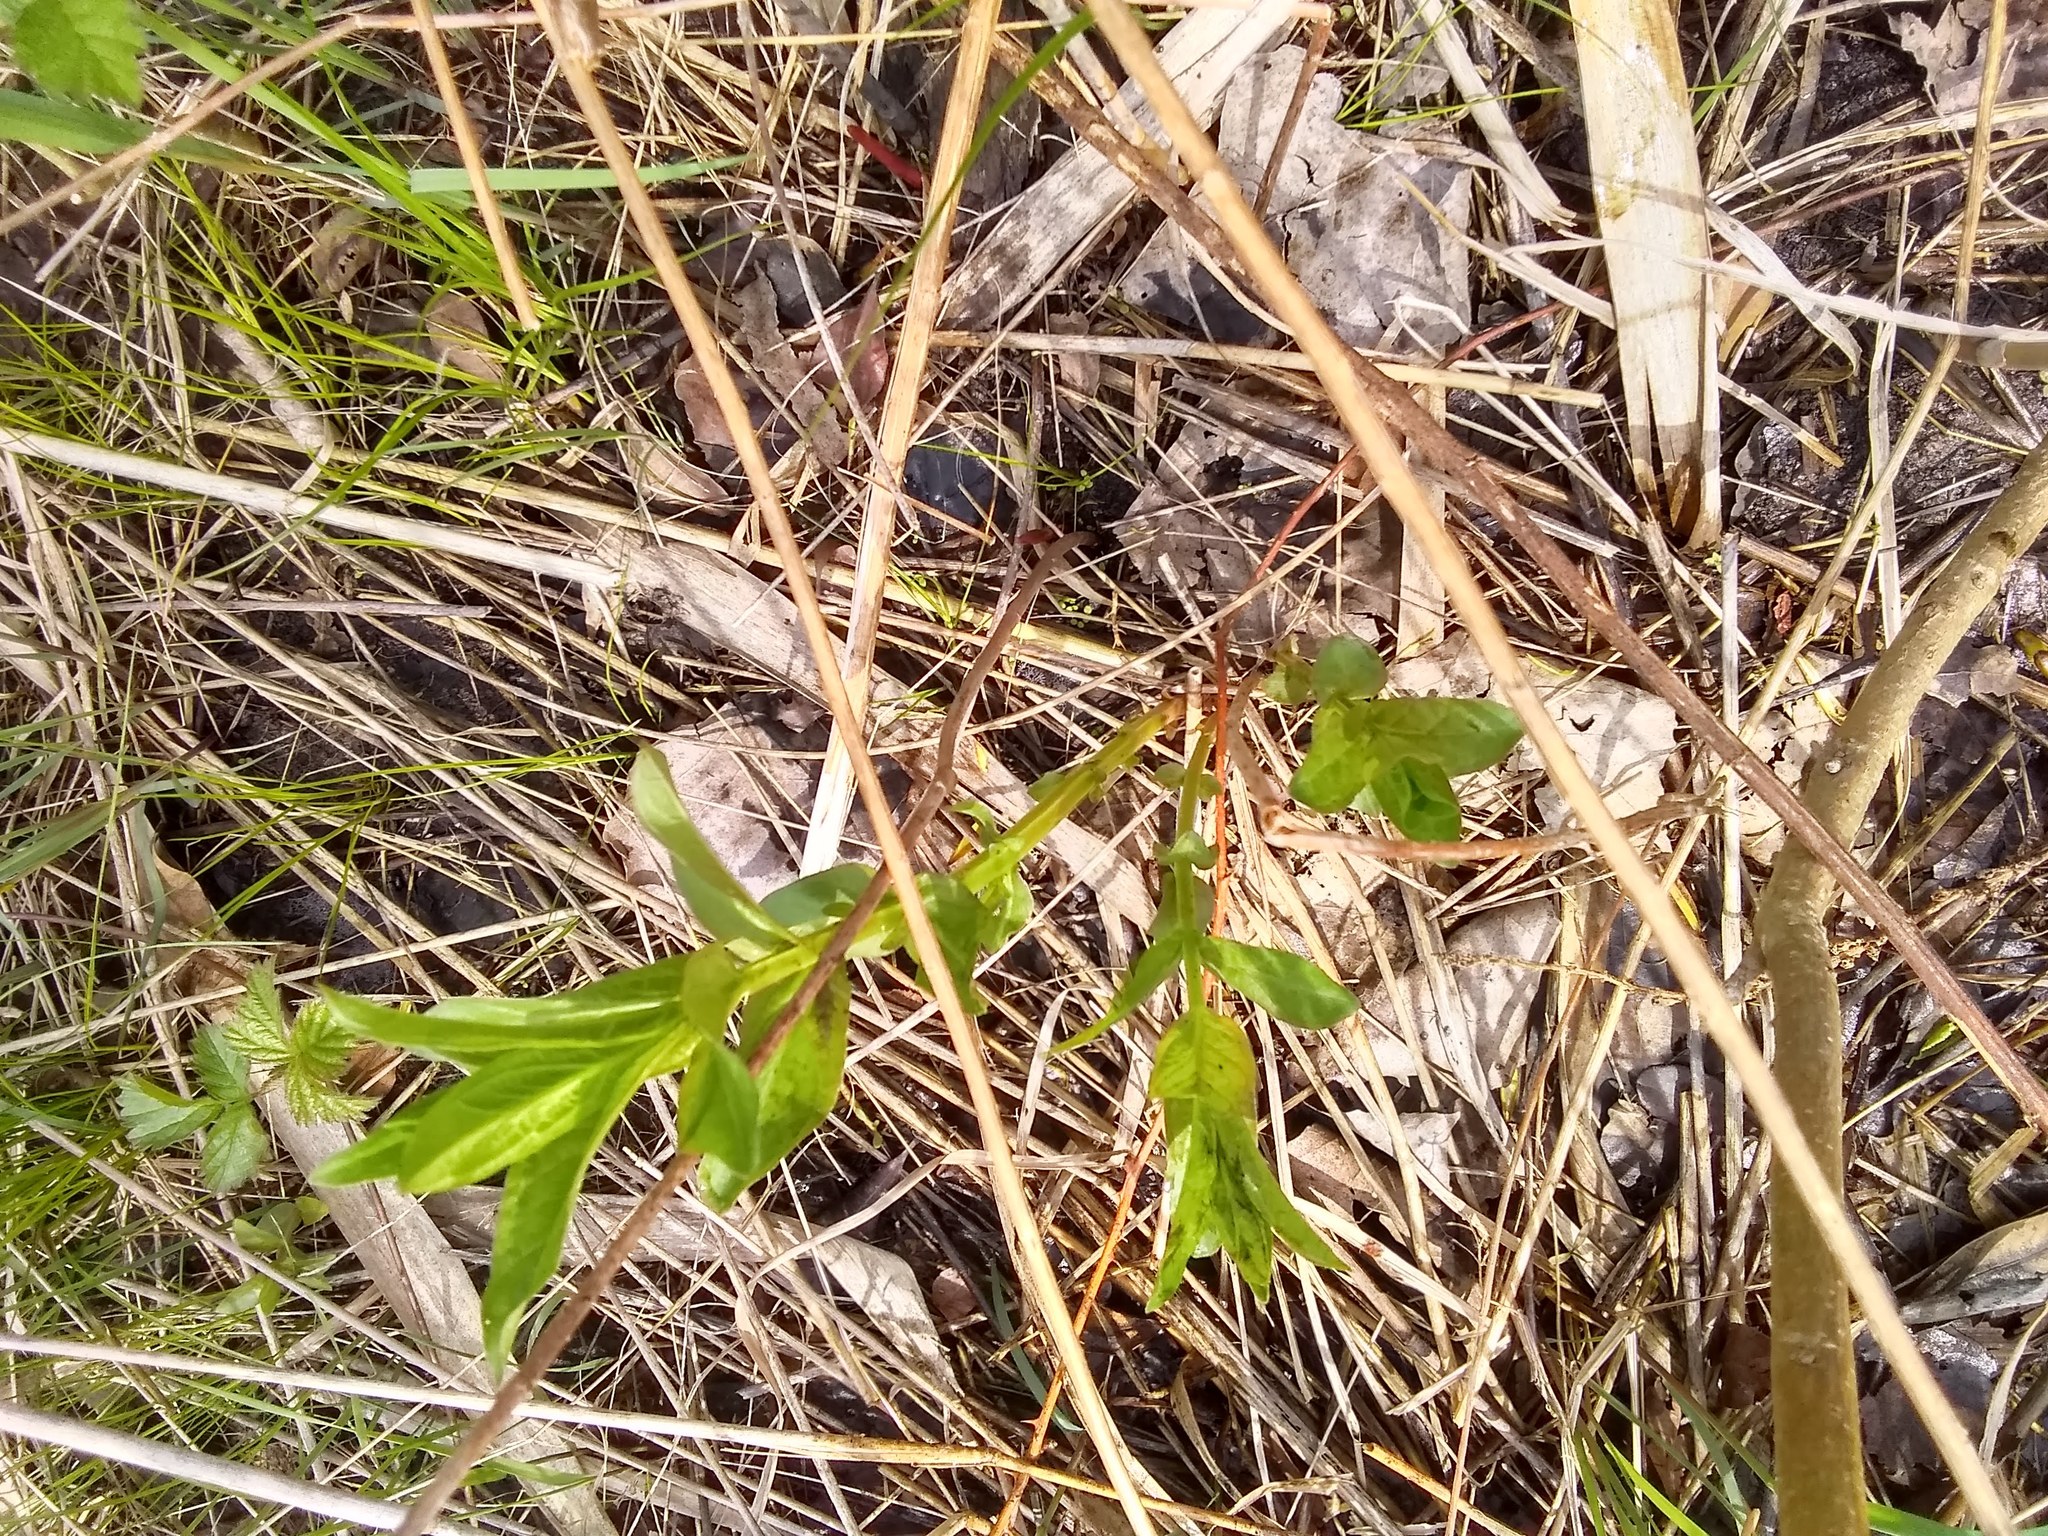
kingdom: Plantae
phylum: Tracheophyta
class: Magnoliopsida
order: Myrtales
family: Lythraceae
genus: Lythrum
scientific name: Lythrum salicaria
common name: Purple loosestrife
